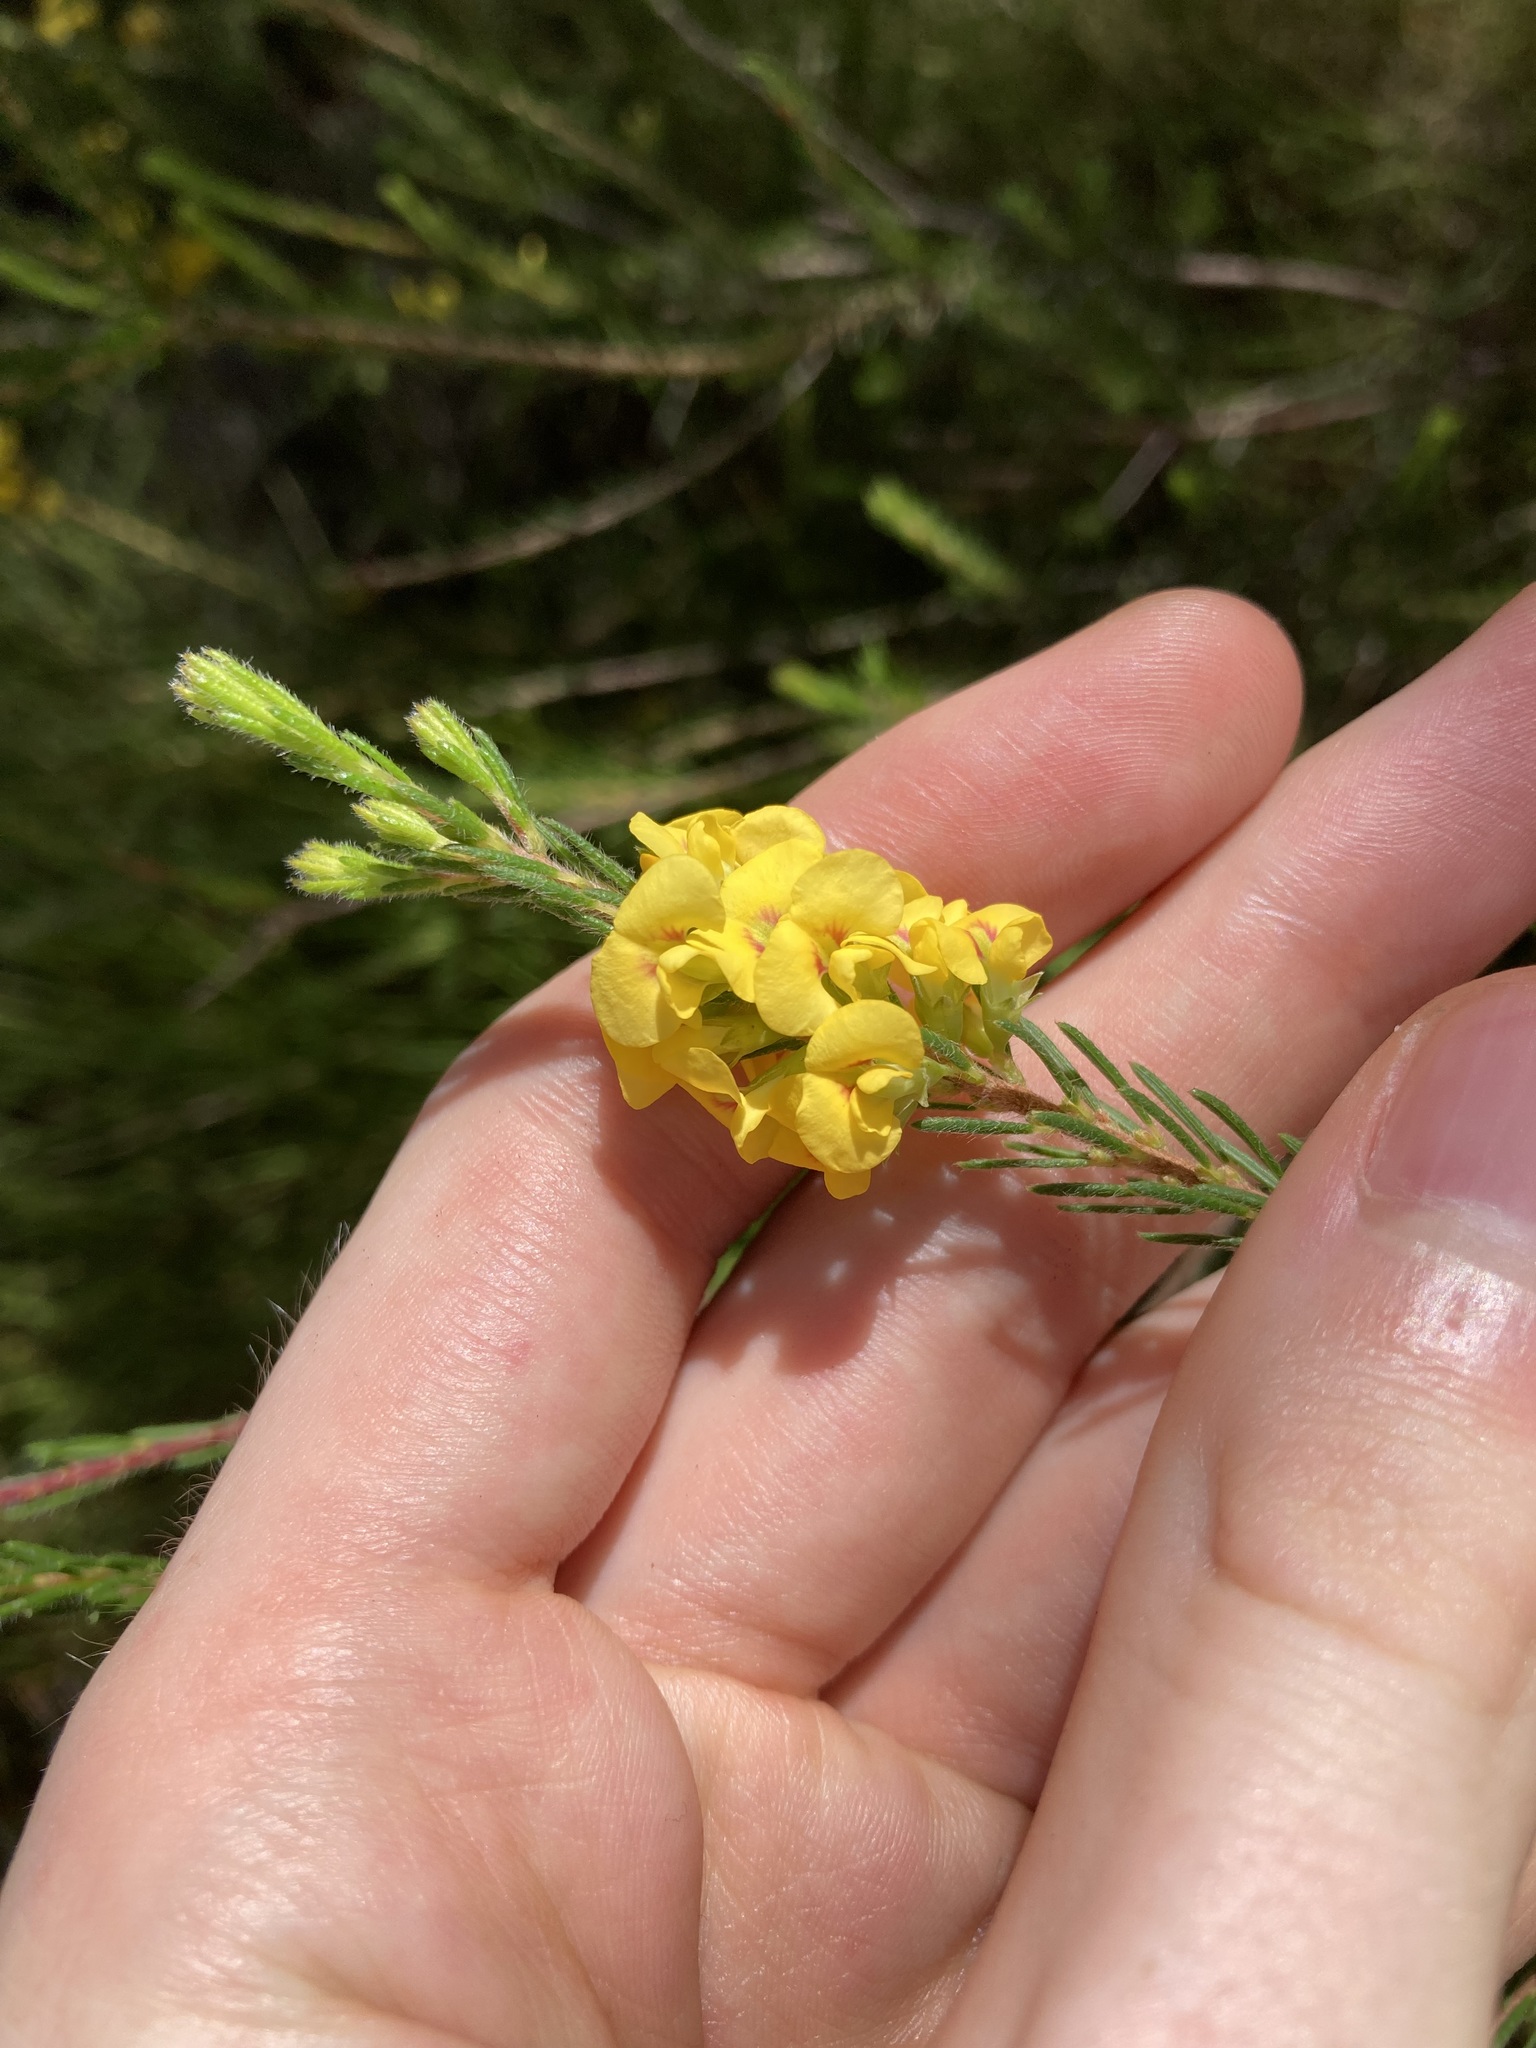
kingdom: Plantae
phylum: Tracheophyta
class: Magnoliopsida
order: Fabales
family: Fabaceae
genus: Dillwynia
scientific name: Dillwynia floribunda
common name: Eggs-and-bacon
